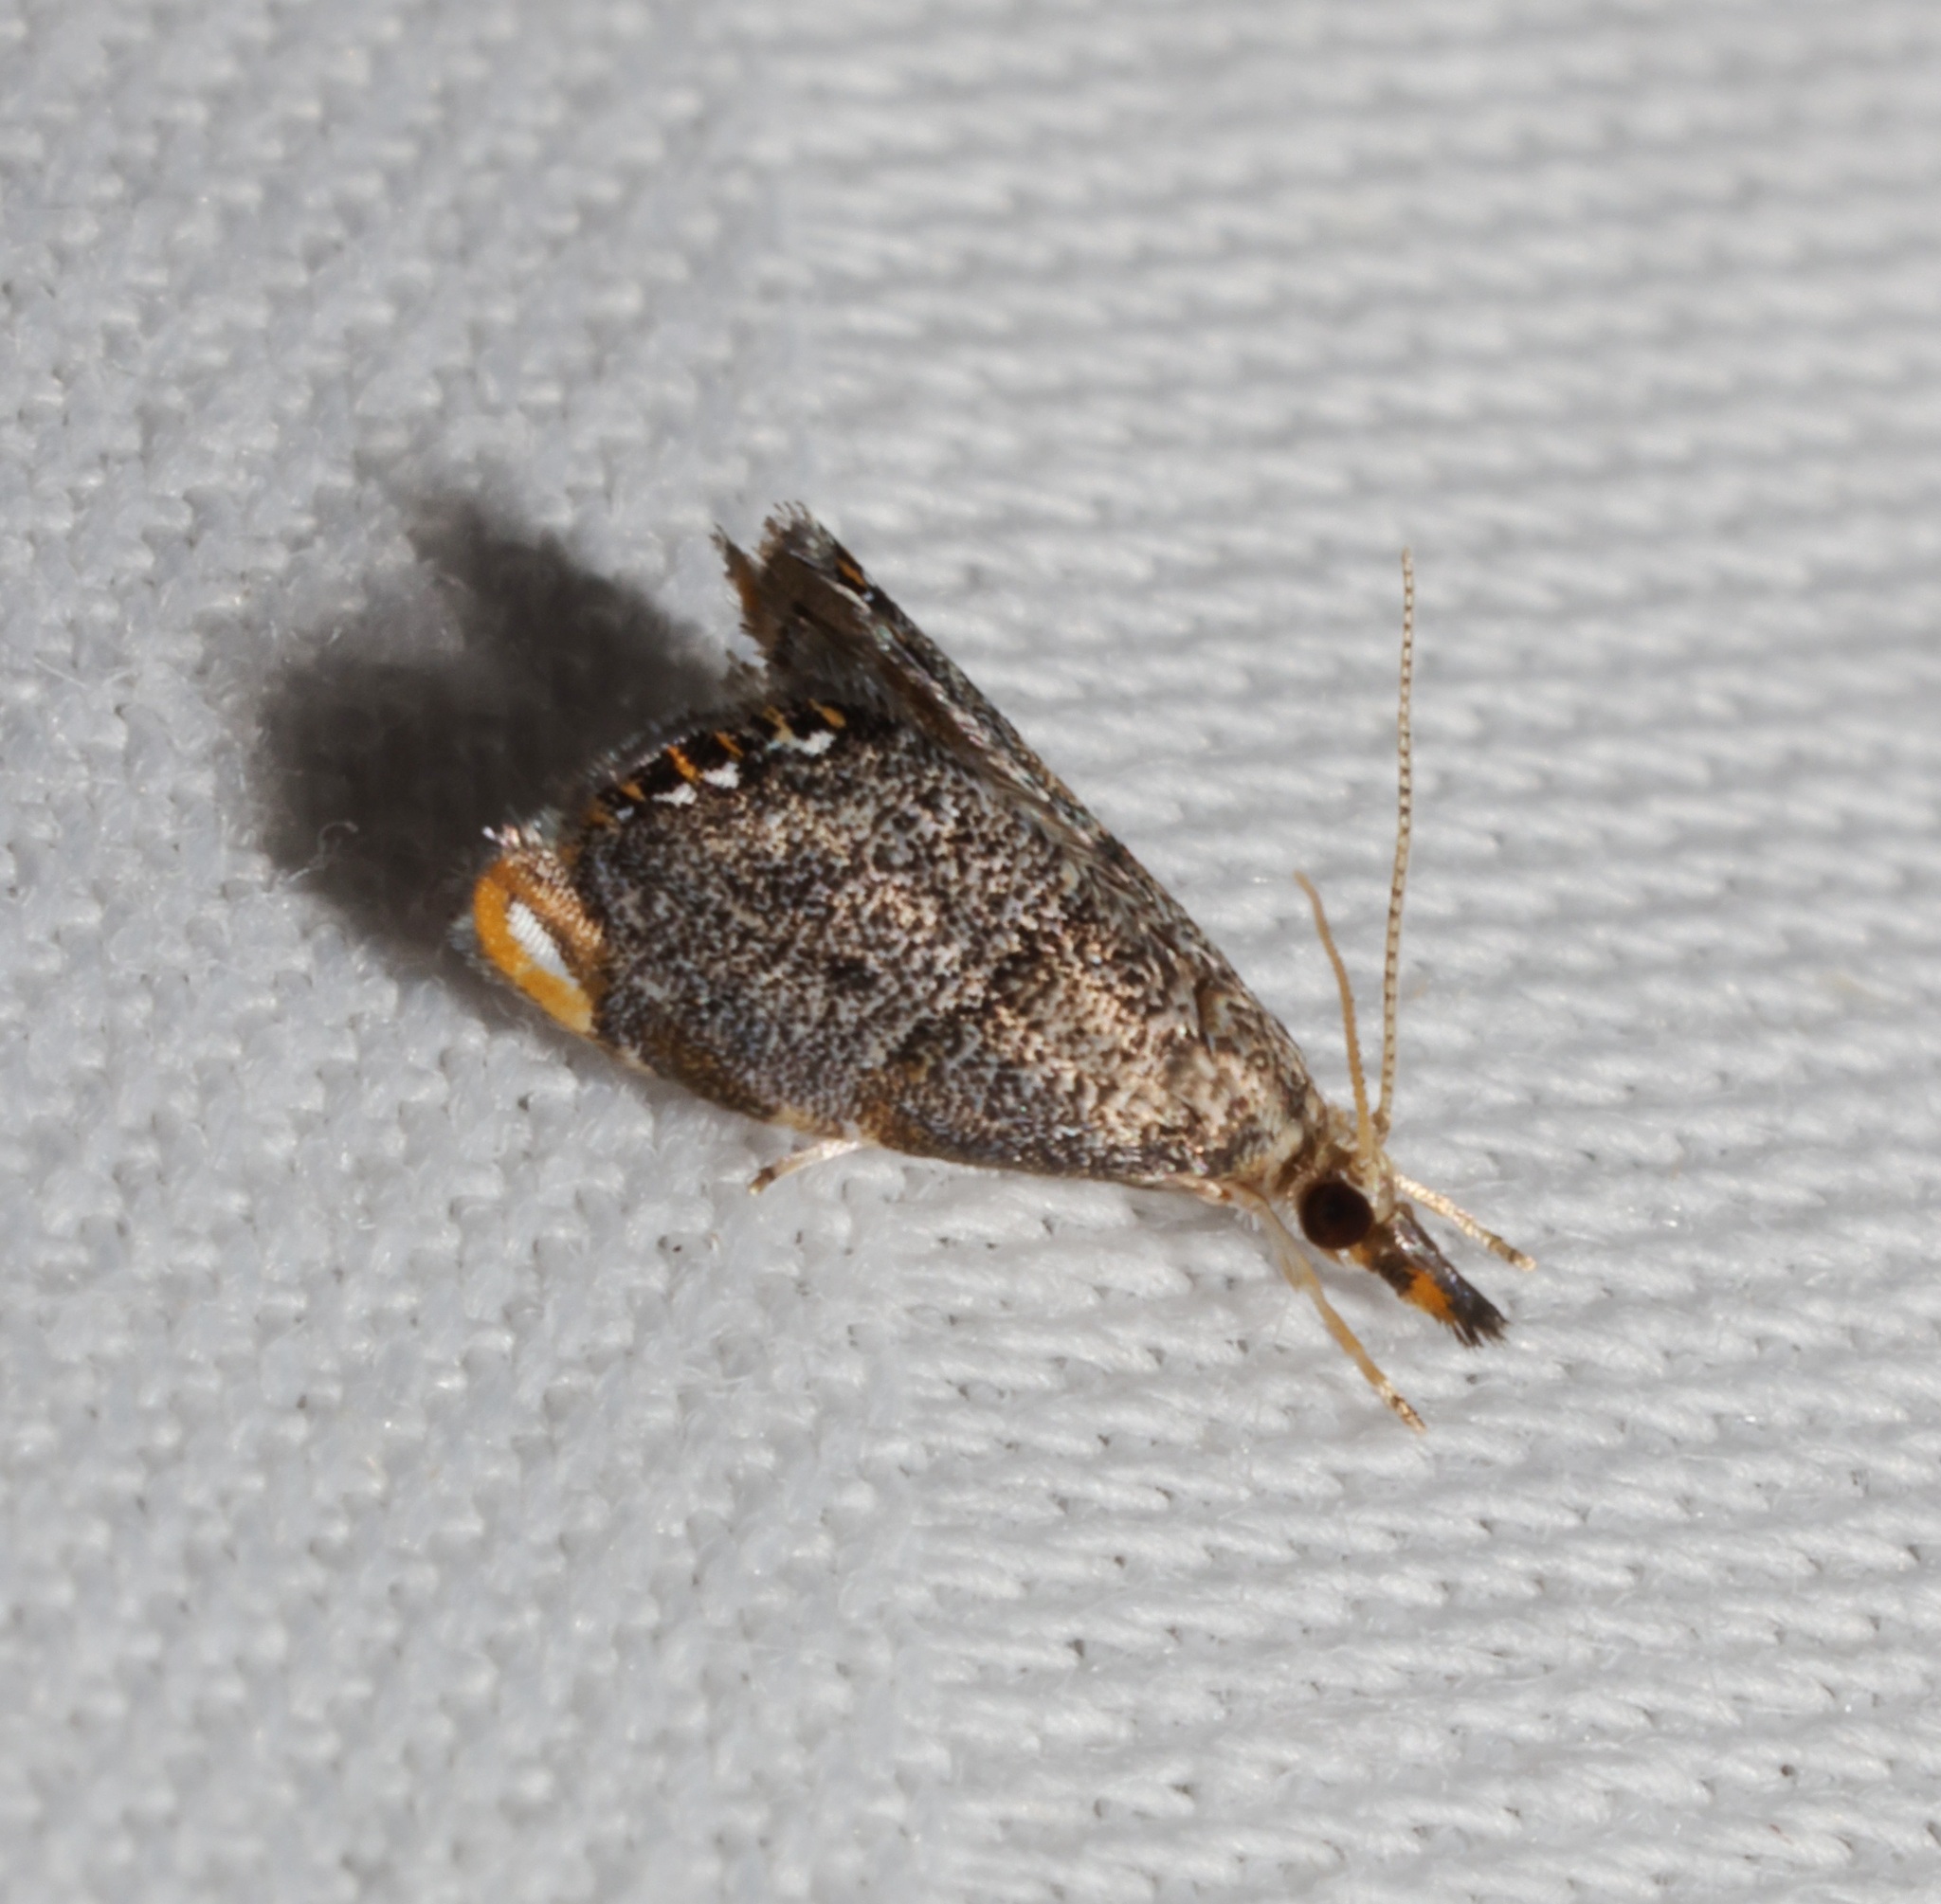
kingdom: Animalia
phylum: Arthropoda
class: Insecta
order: Lepidoptera
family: Crambidae
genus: Glaucocharis
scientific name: Glaucocharis biconvexa
